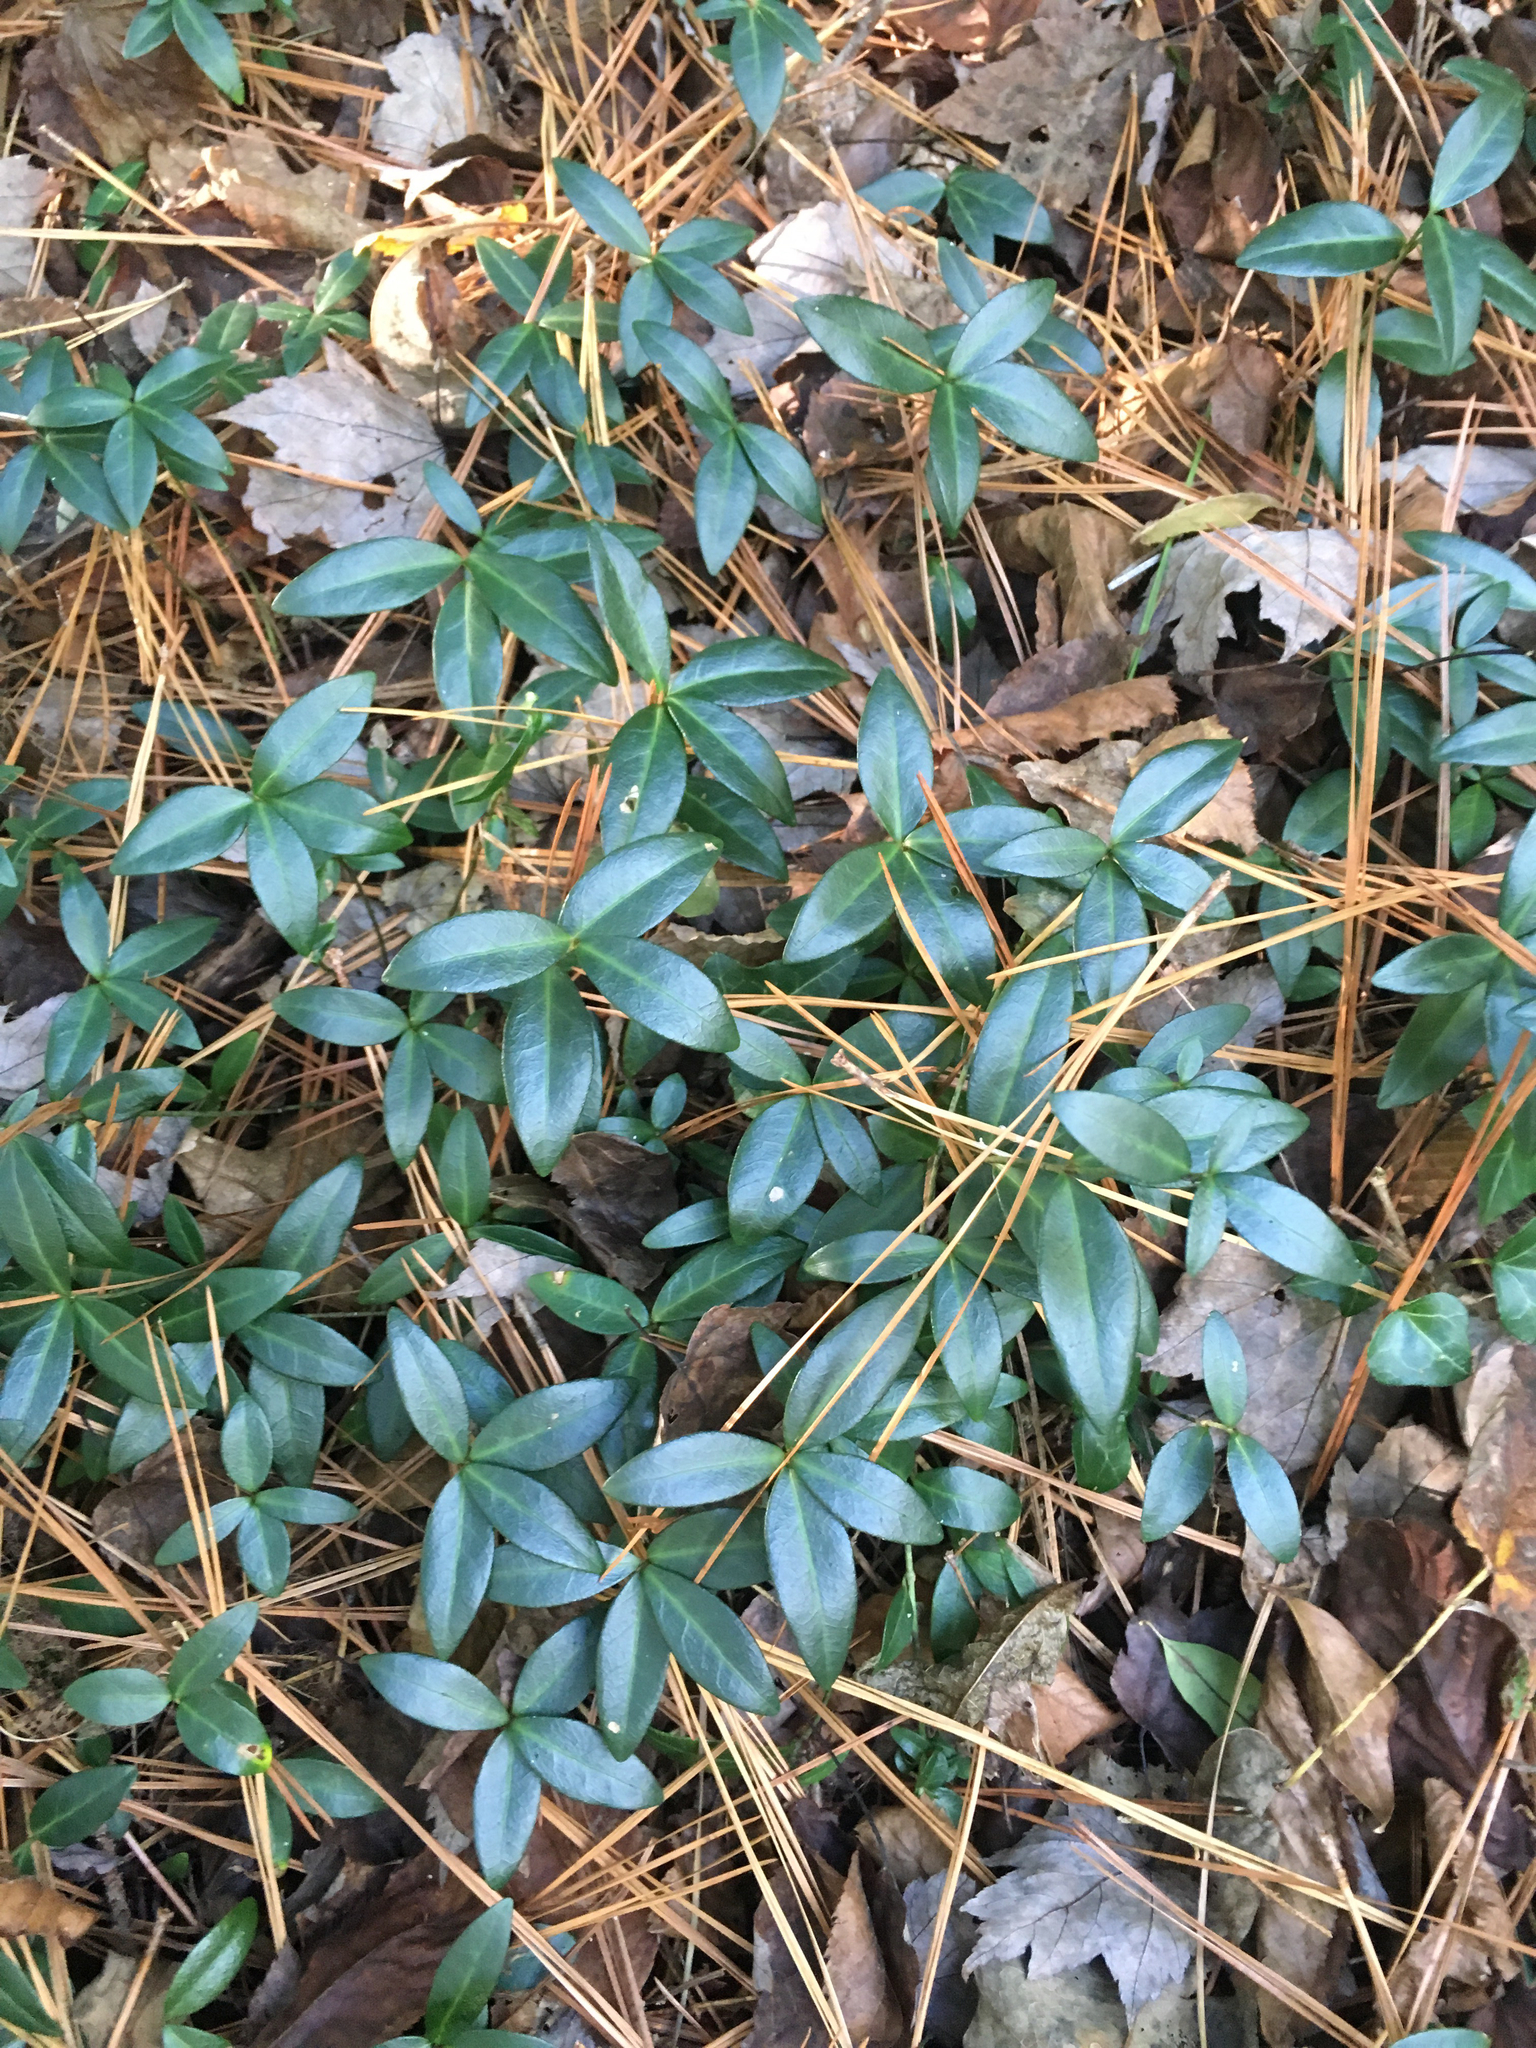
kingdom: Plantae
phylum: Tracheophyta
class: Magnoliopsida
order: Gentianales
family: Apocynaceae
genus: Vinca
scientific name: Vinca minor
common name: Lesser periwinkle
